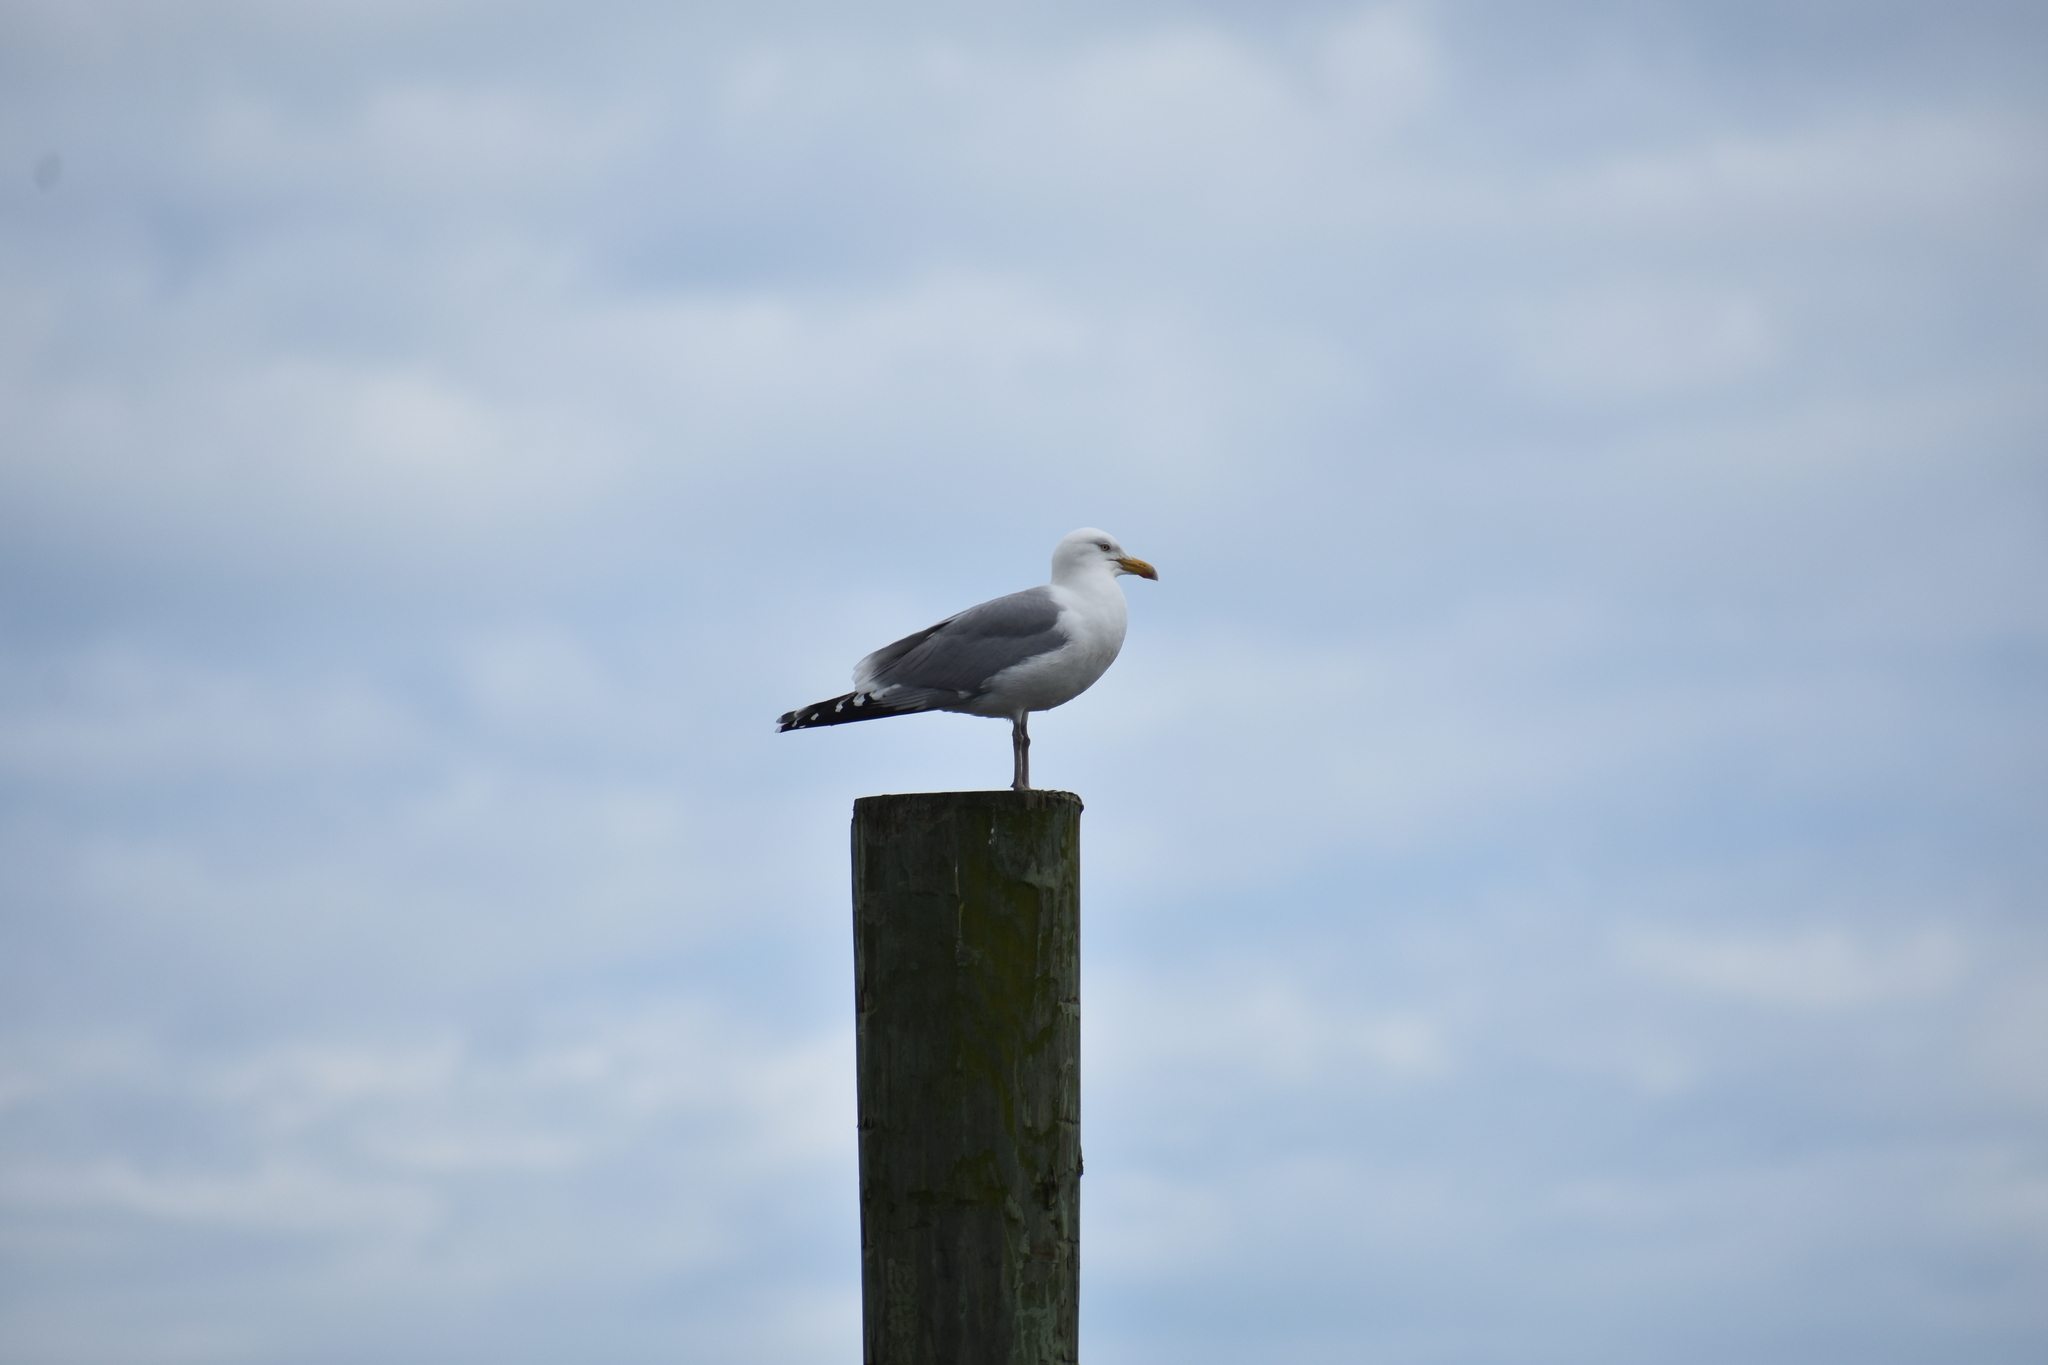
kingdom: Animalia
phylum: Chordata
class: Aves
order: Charadriiformes
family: Laridae
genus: Larus
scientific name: Larus argentatus
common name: Herring gull
